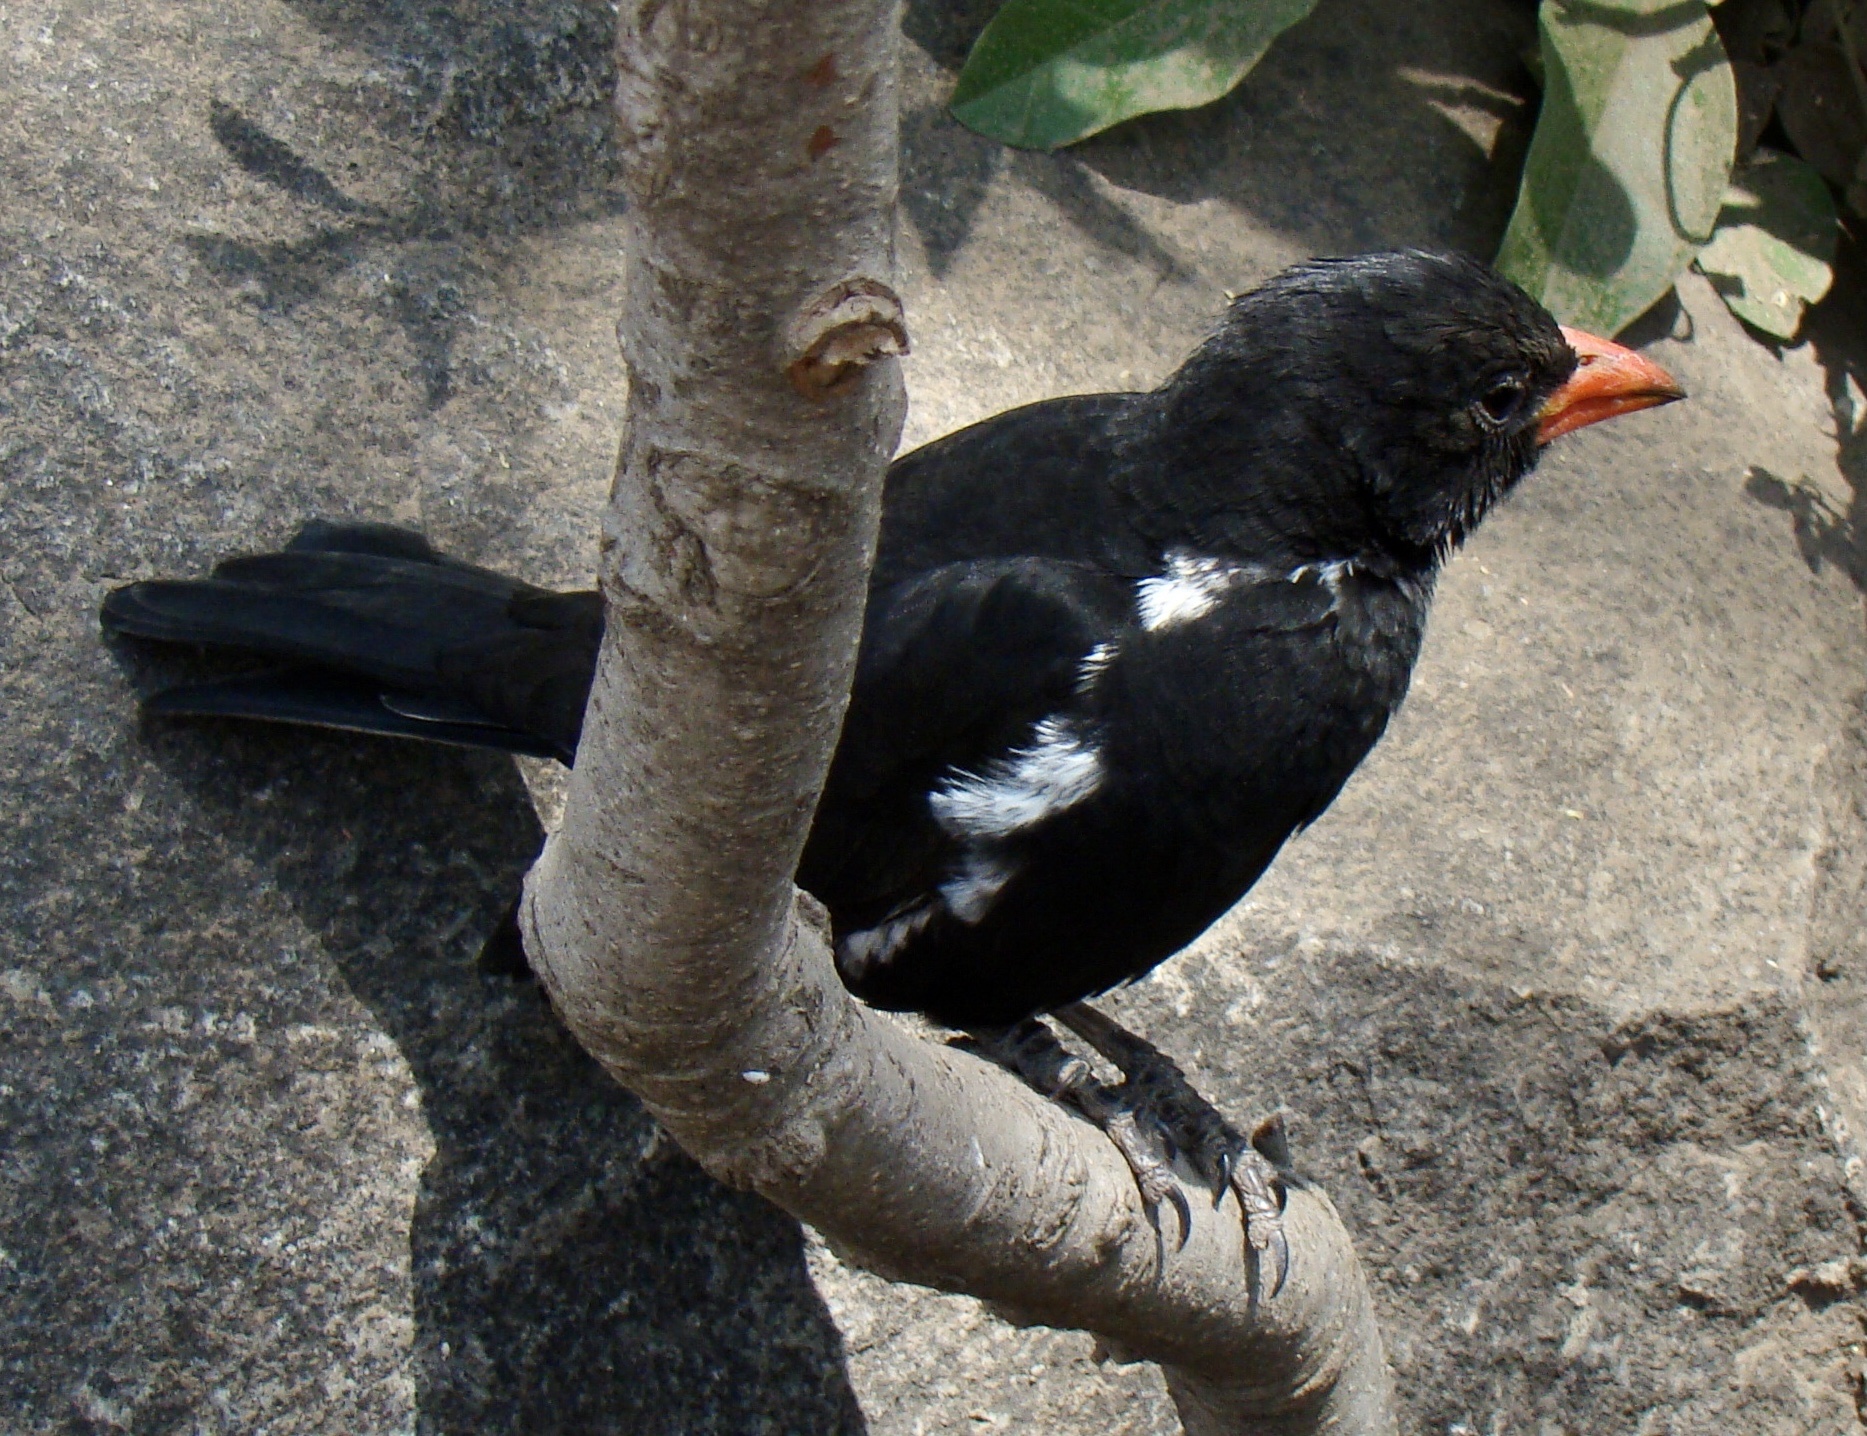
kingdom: Animalia
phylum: Chordata
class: Aves
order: Passeriformes
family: Ploceidae
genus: Bubalornis
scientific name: Bubalornis niger
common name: Red-billed buffalo weaver
